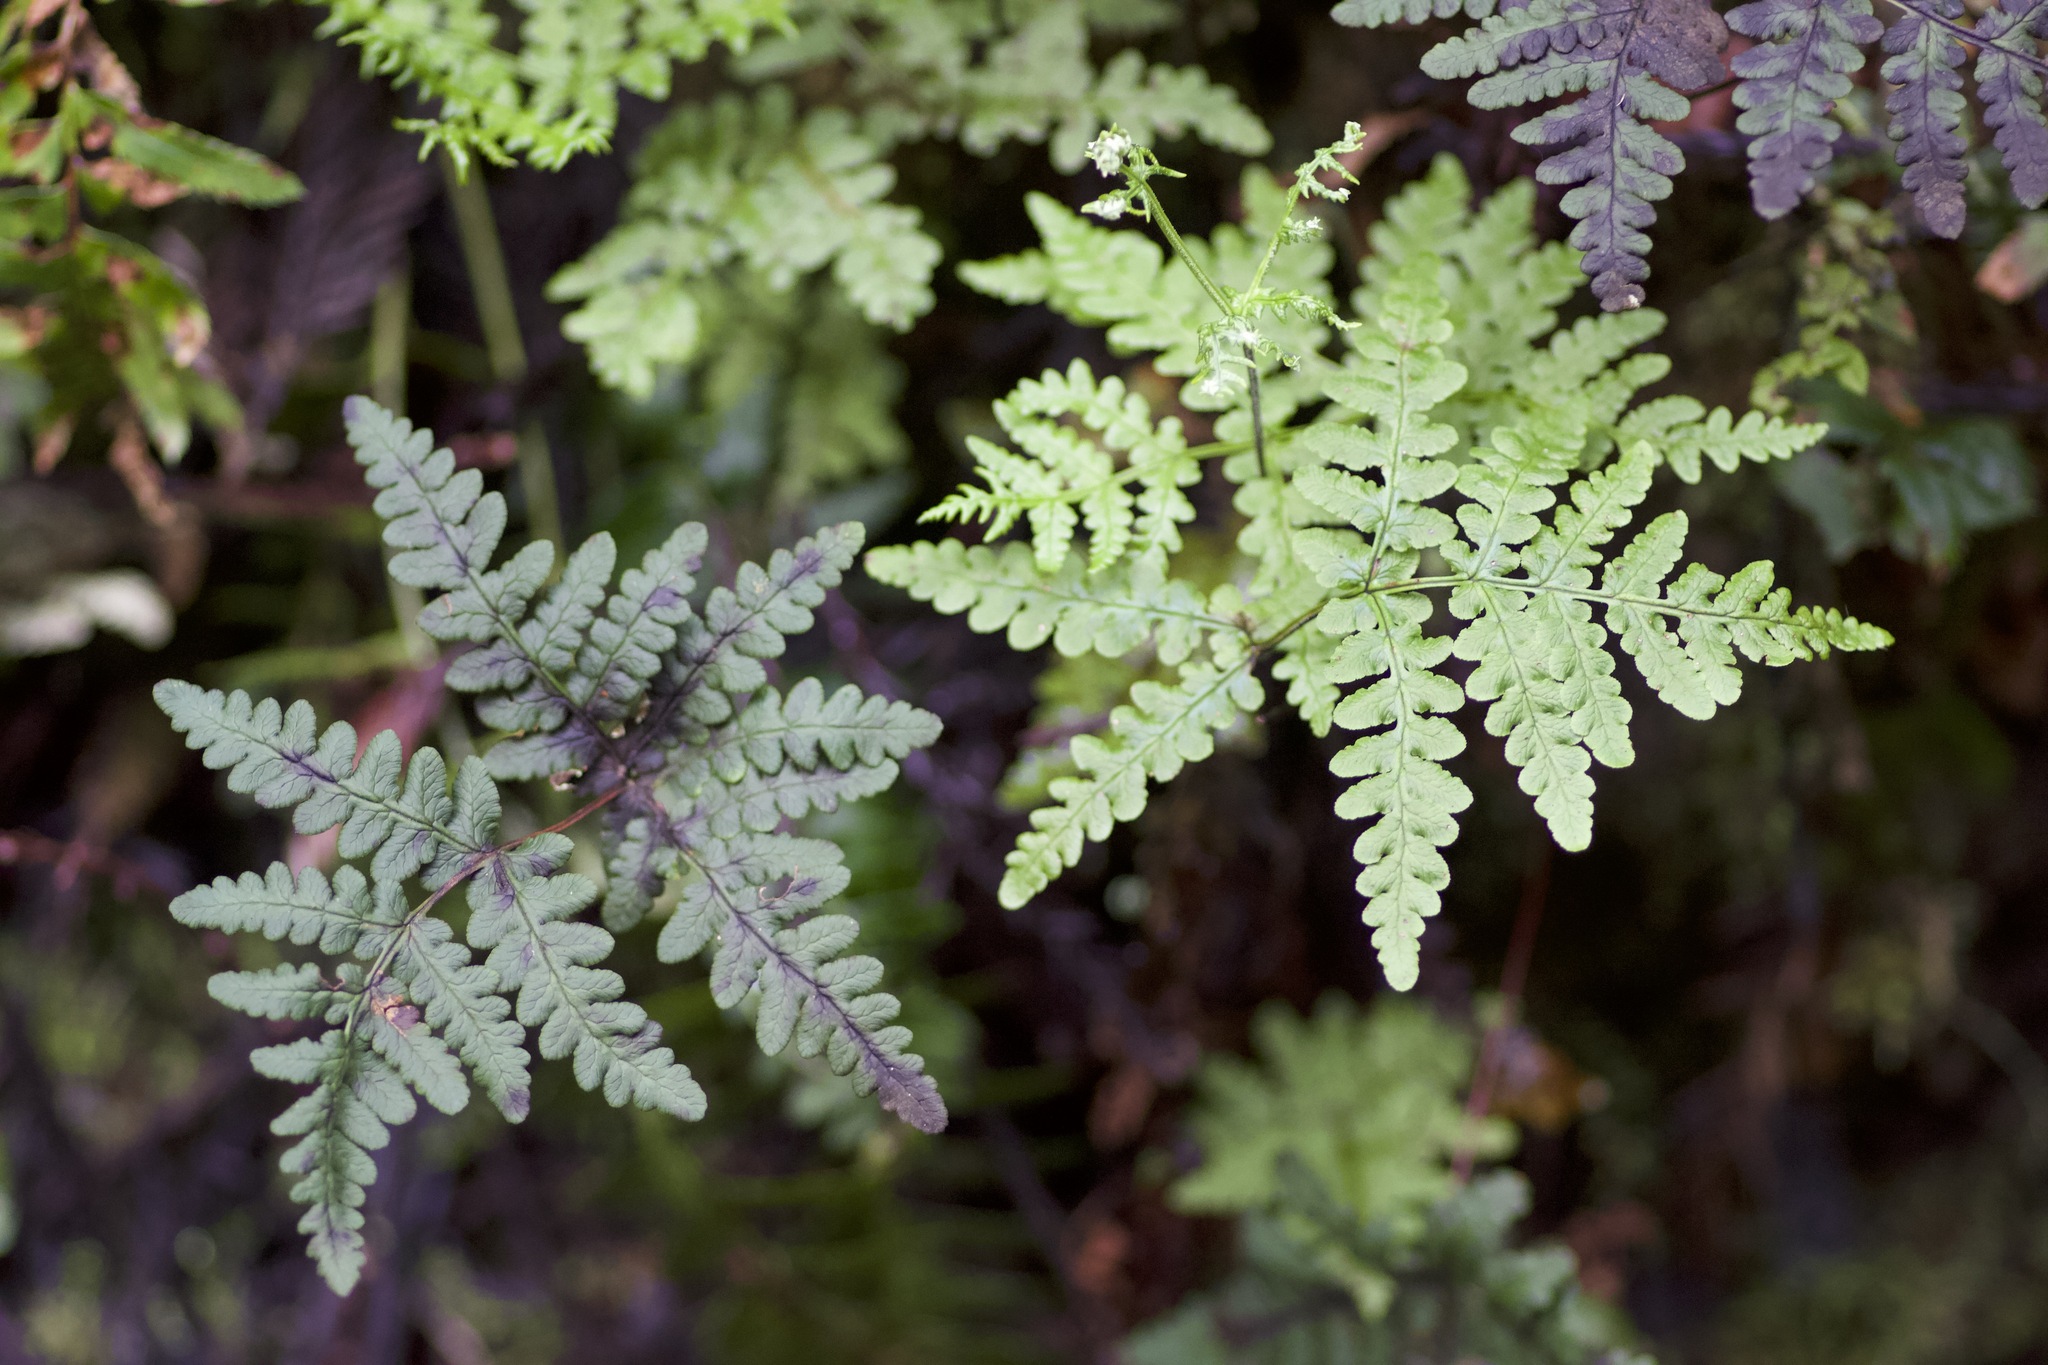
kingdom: Plantae
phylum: Tracheophyta
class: Polypodiopsida
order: Polypodiales
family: Pteridaceae
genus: Pentagramma
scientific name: Pentagramma triangularis
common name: Gold fern
